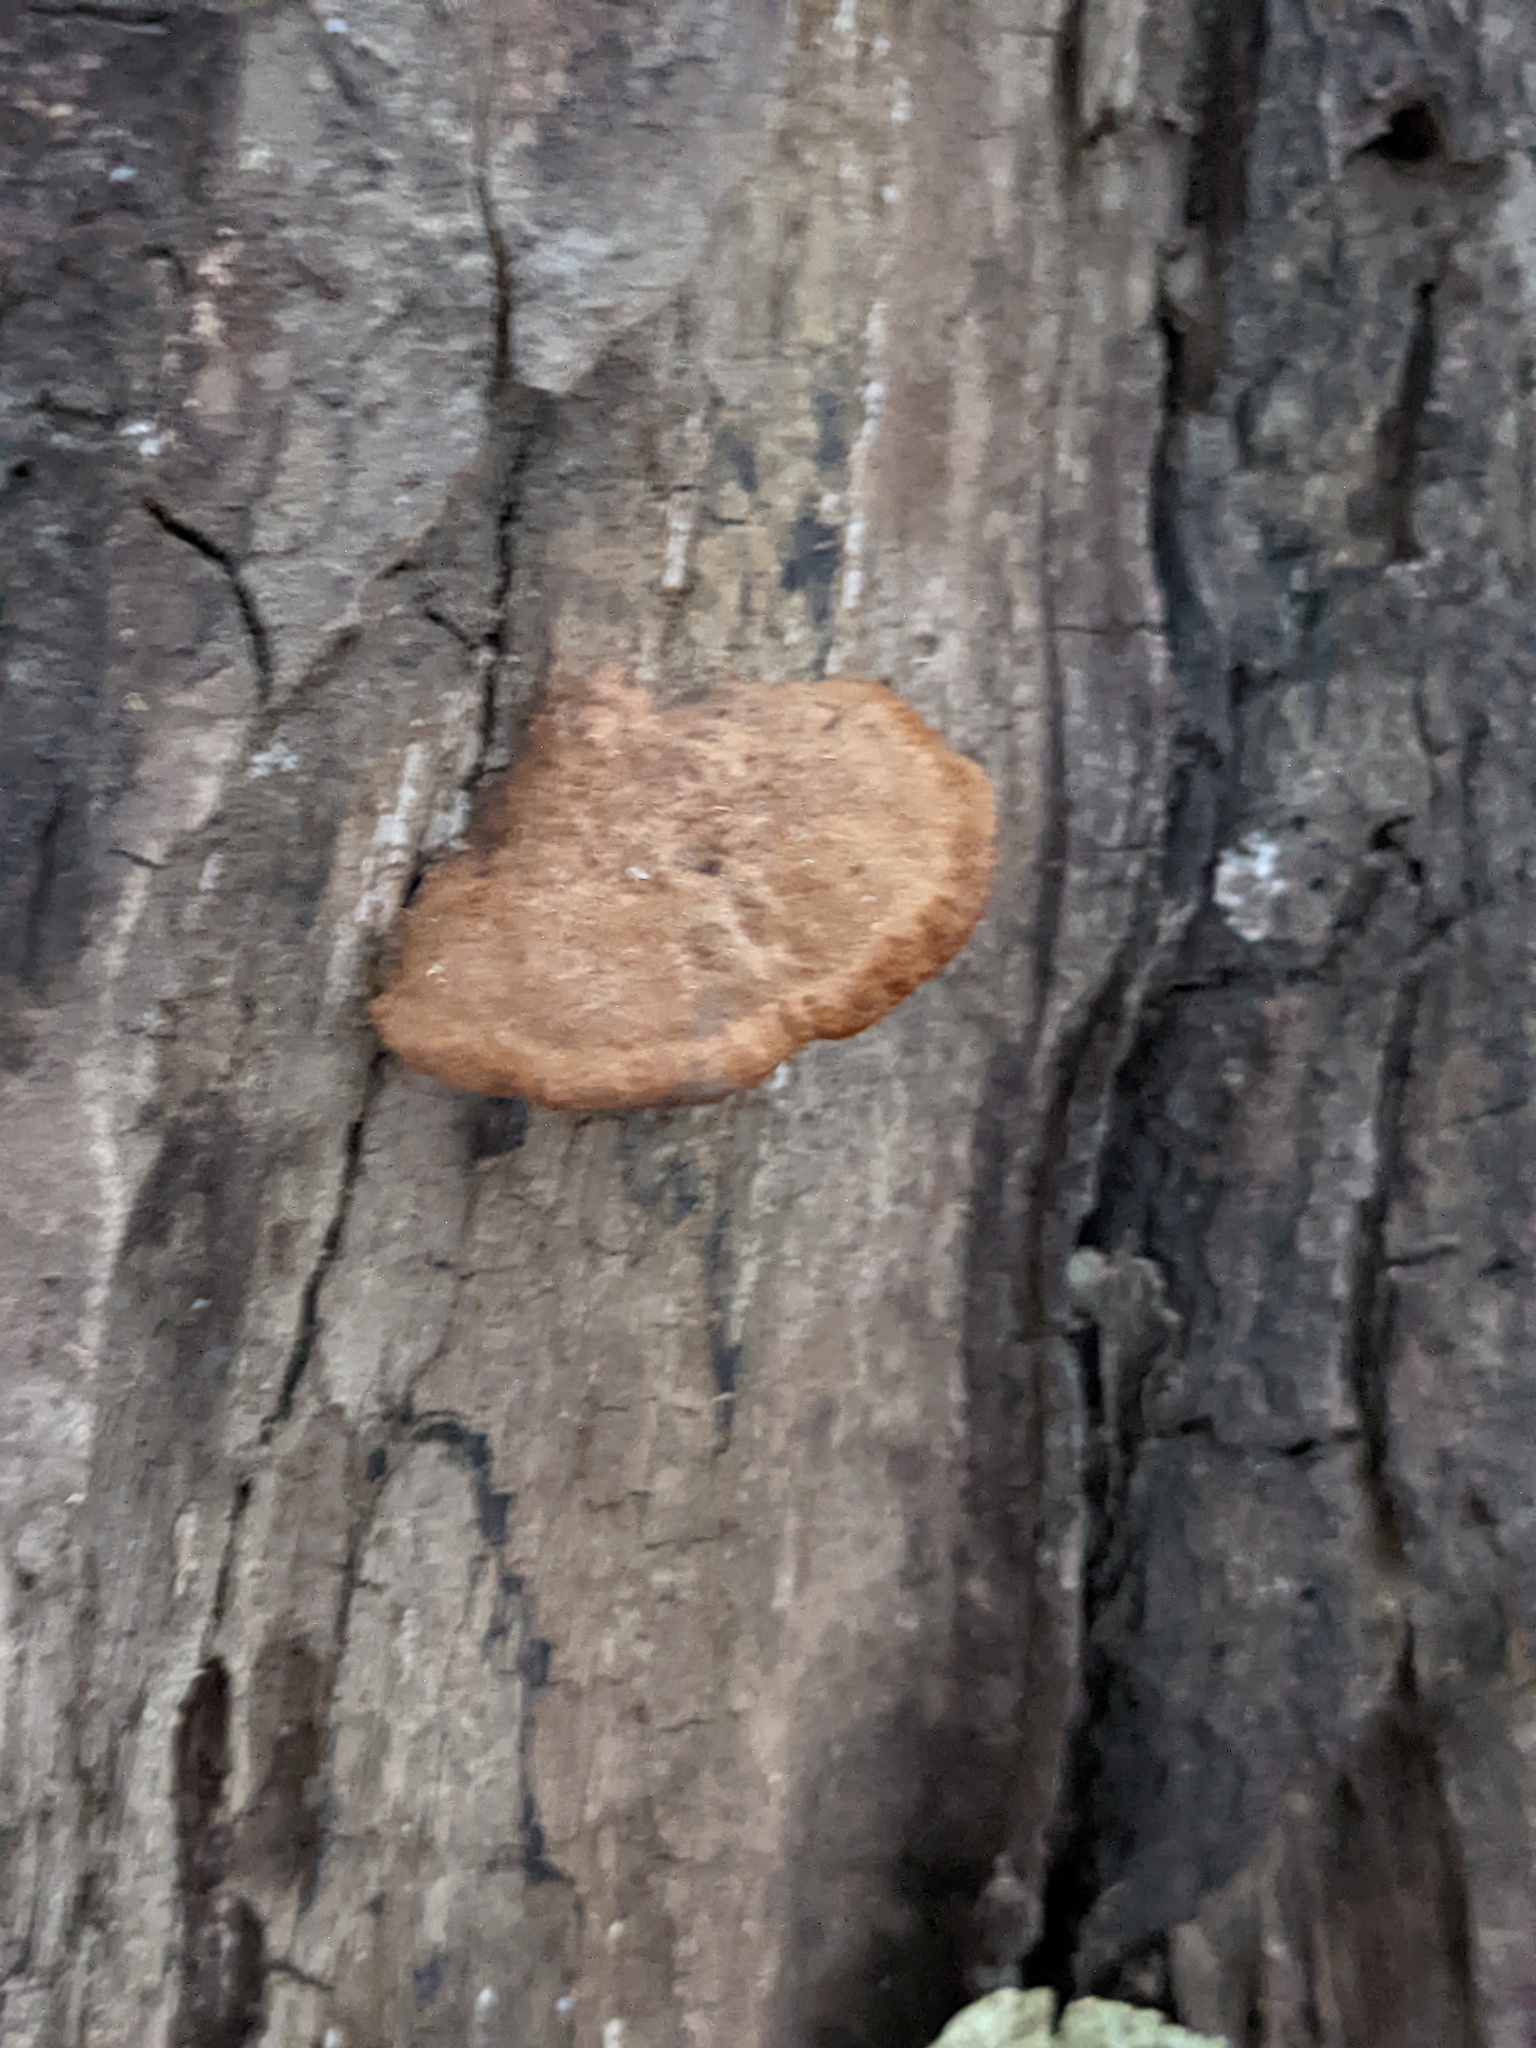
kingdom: Fungi
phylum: Basidiomycota
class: Agaricomycetes
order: Hymenochaetales
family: Hymenochaetaceae
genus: Phellinus
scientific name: Phellinus gilvus
